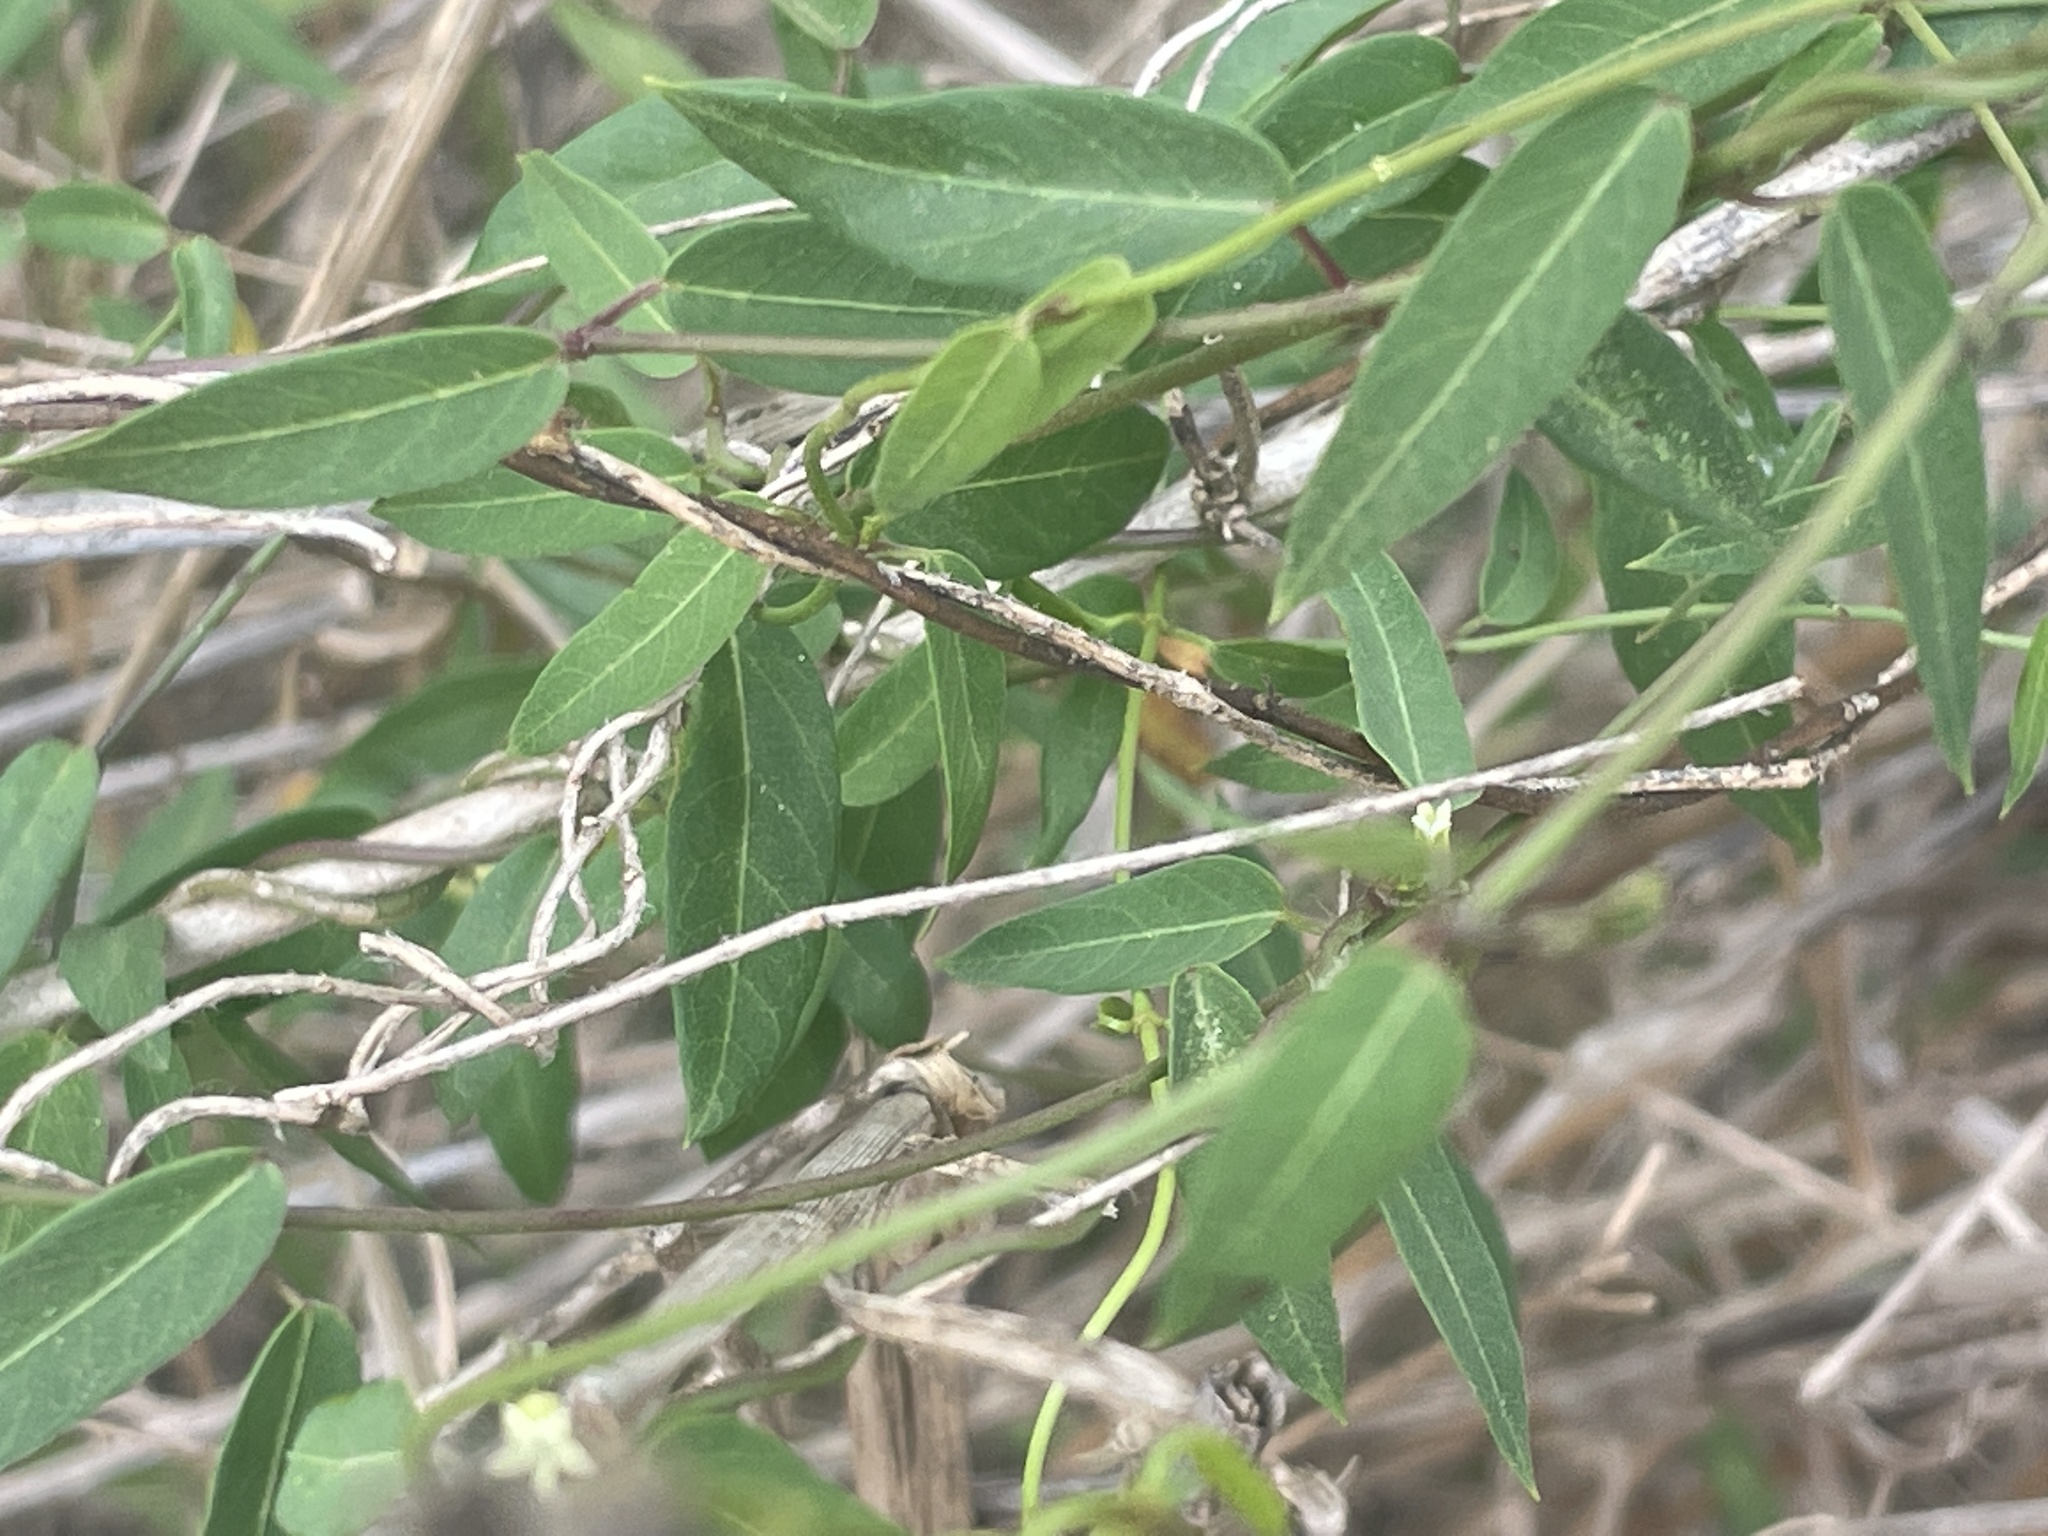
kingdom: Plantae
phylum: Tracheophyta
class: Magnoliopsida
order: Gentianales
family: Apocynaceae
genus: Metastelma
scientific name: Metastelma barbigerum
